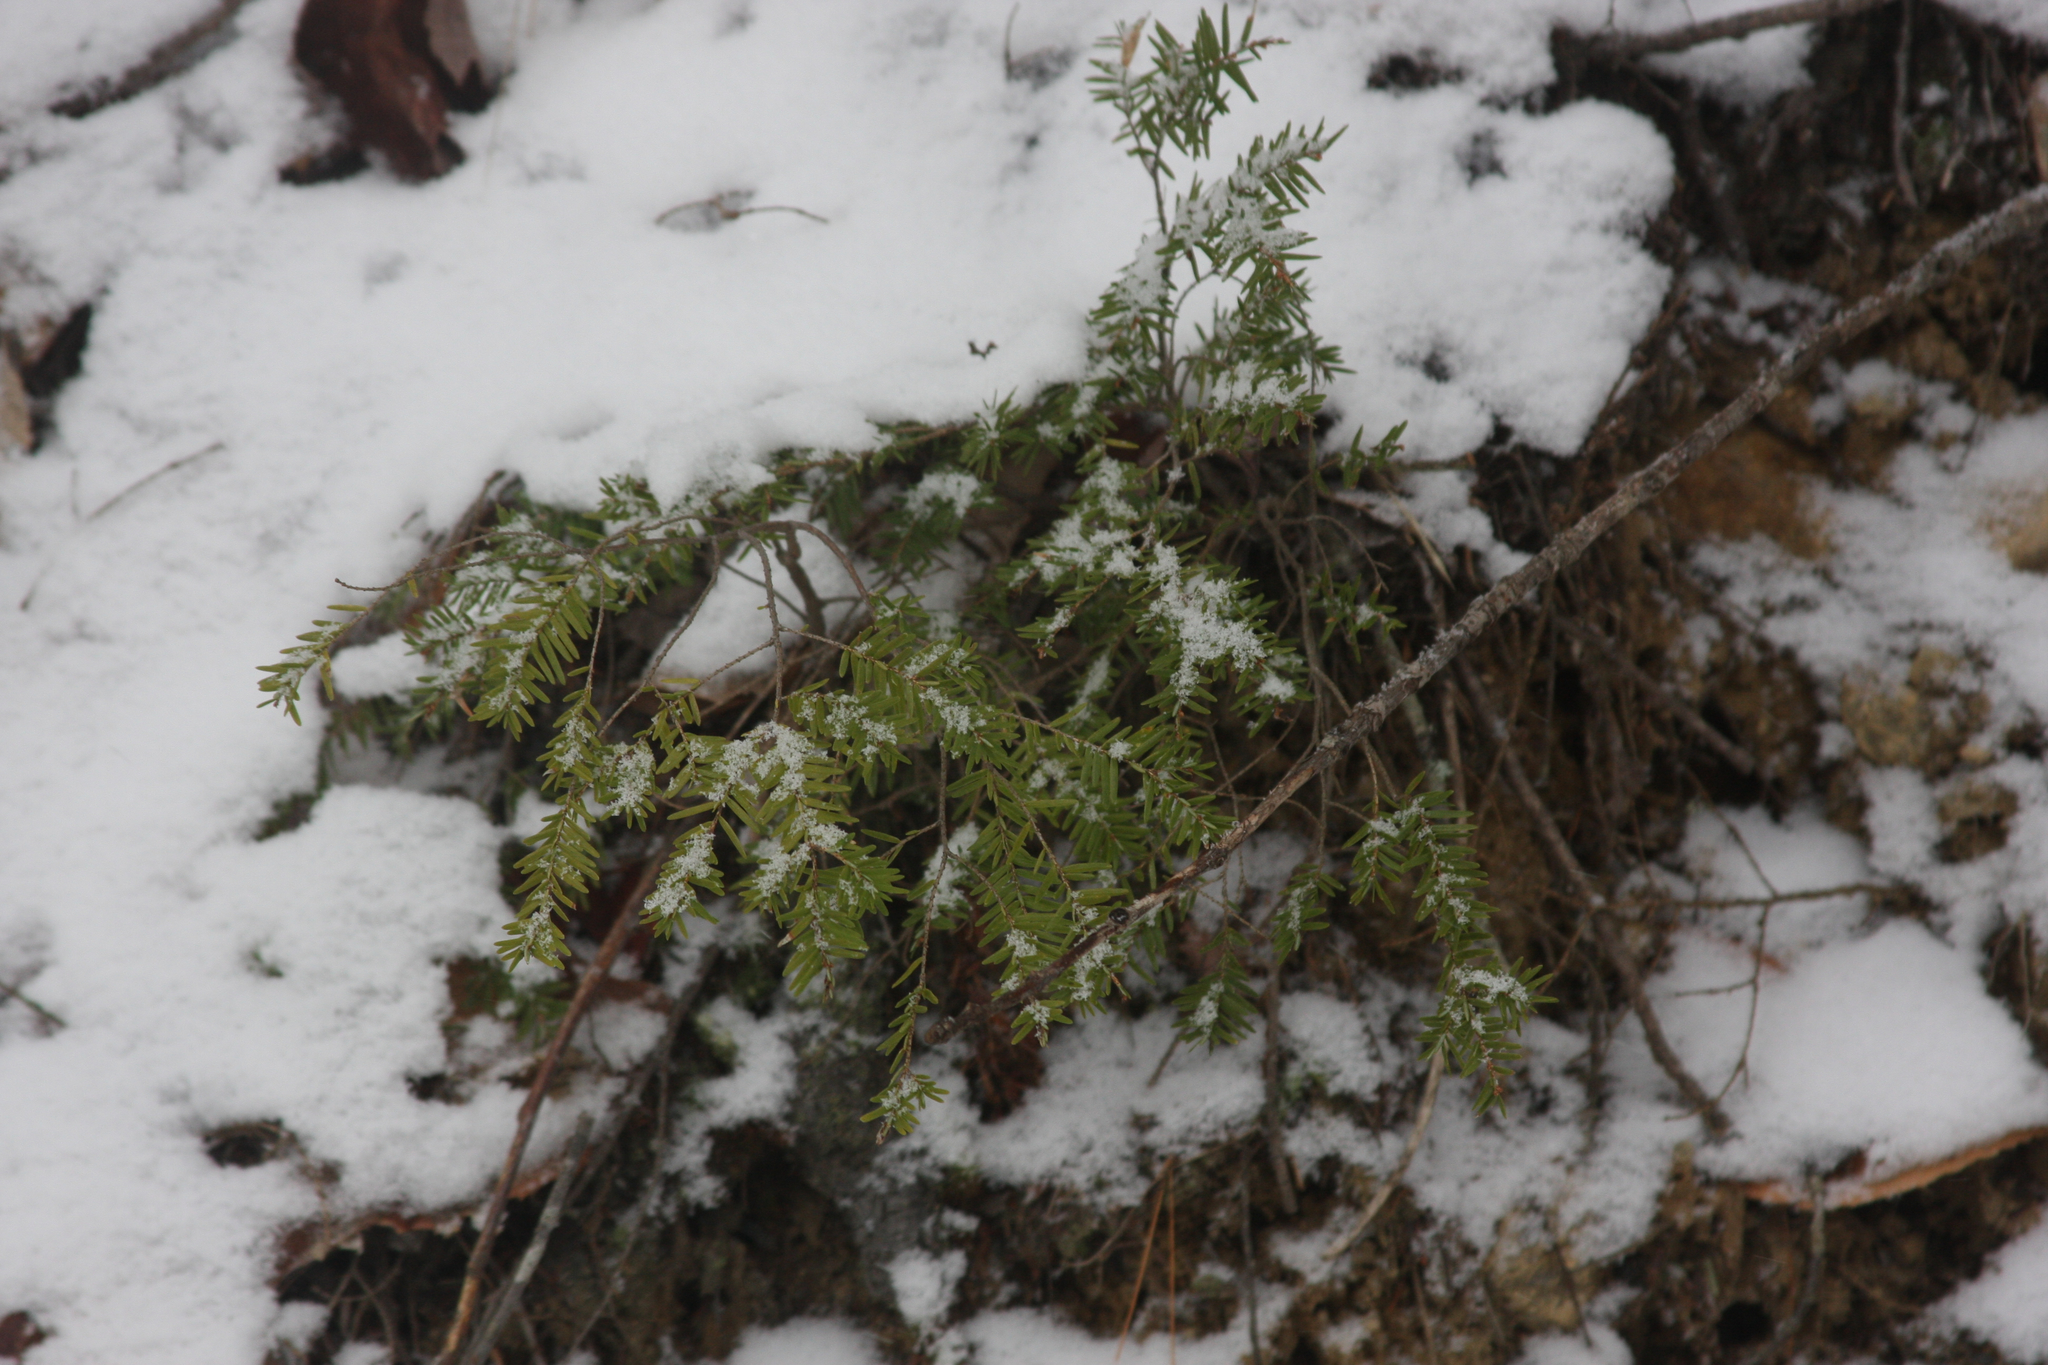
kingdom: Plantae
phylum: Tracheophyta
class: Pinopsida
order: Pinales
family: Pinaceae
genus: Tsuga
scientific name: Tsuga canadensis
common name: Eastern hemlock
